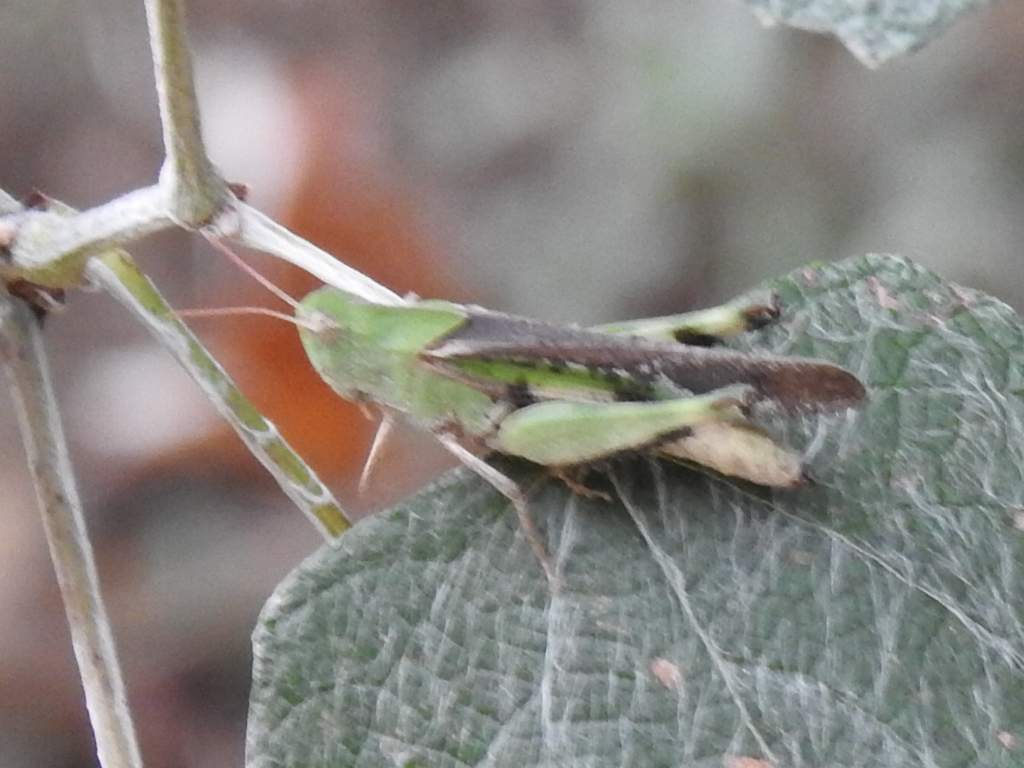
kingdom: Animalia
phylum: Arthropoda
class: Insecta
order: Orthoptera
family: Acrididae
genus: Chortophaga
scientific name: Chortophaga viridifasciata
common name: Green-striped grasshopper
